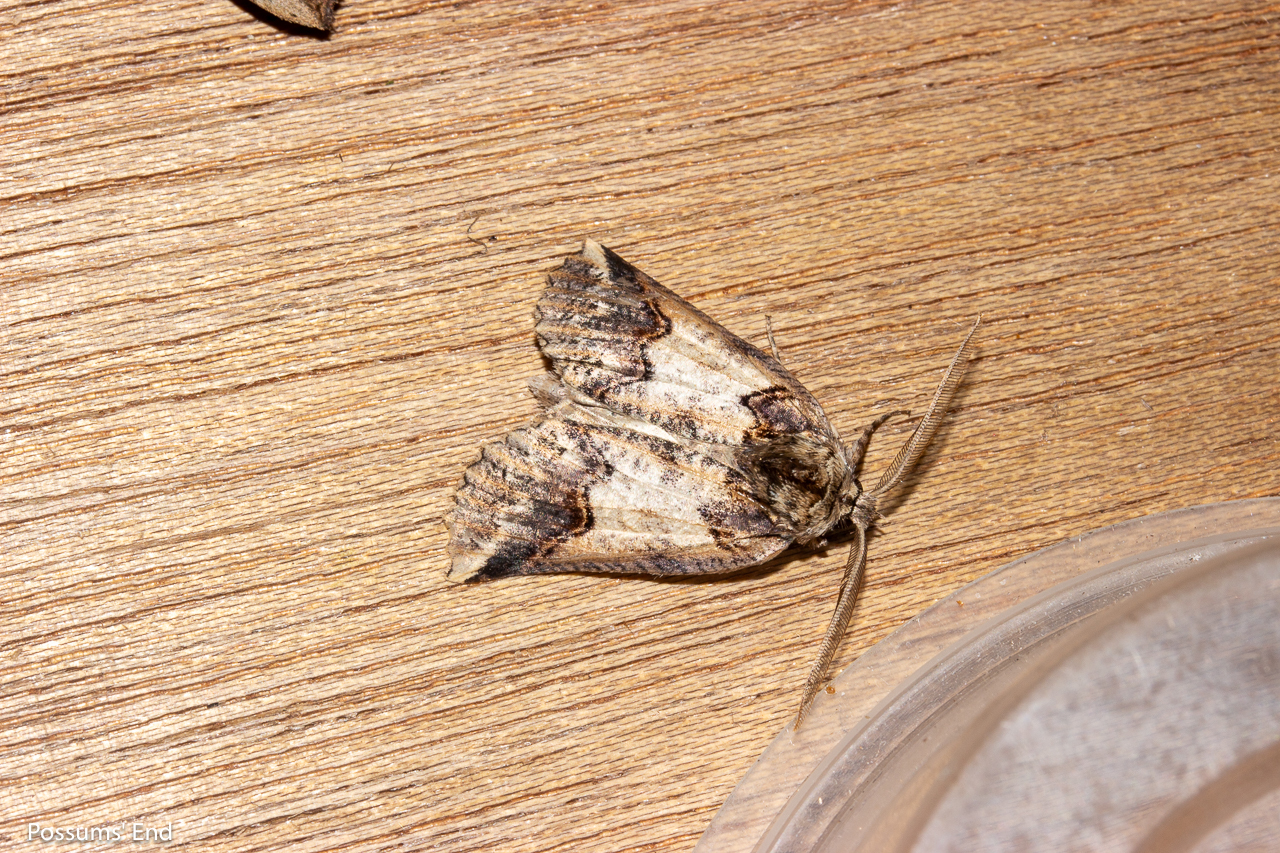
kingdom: Animalia
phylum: Arthropoda
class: Insecta
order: Lepidoptera
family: Geometridae
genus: Declana
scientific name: Declana
